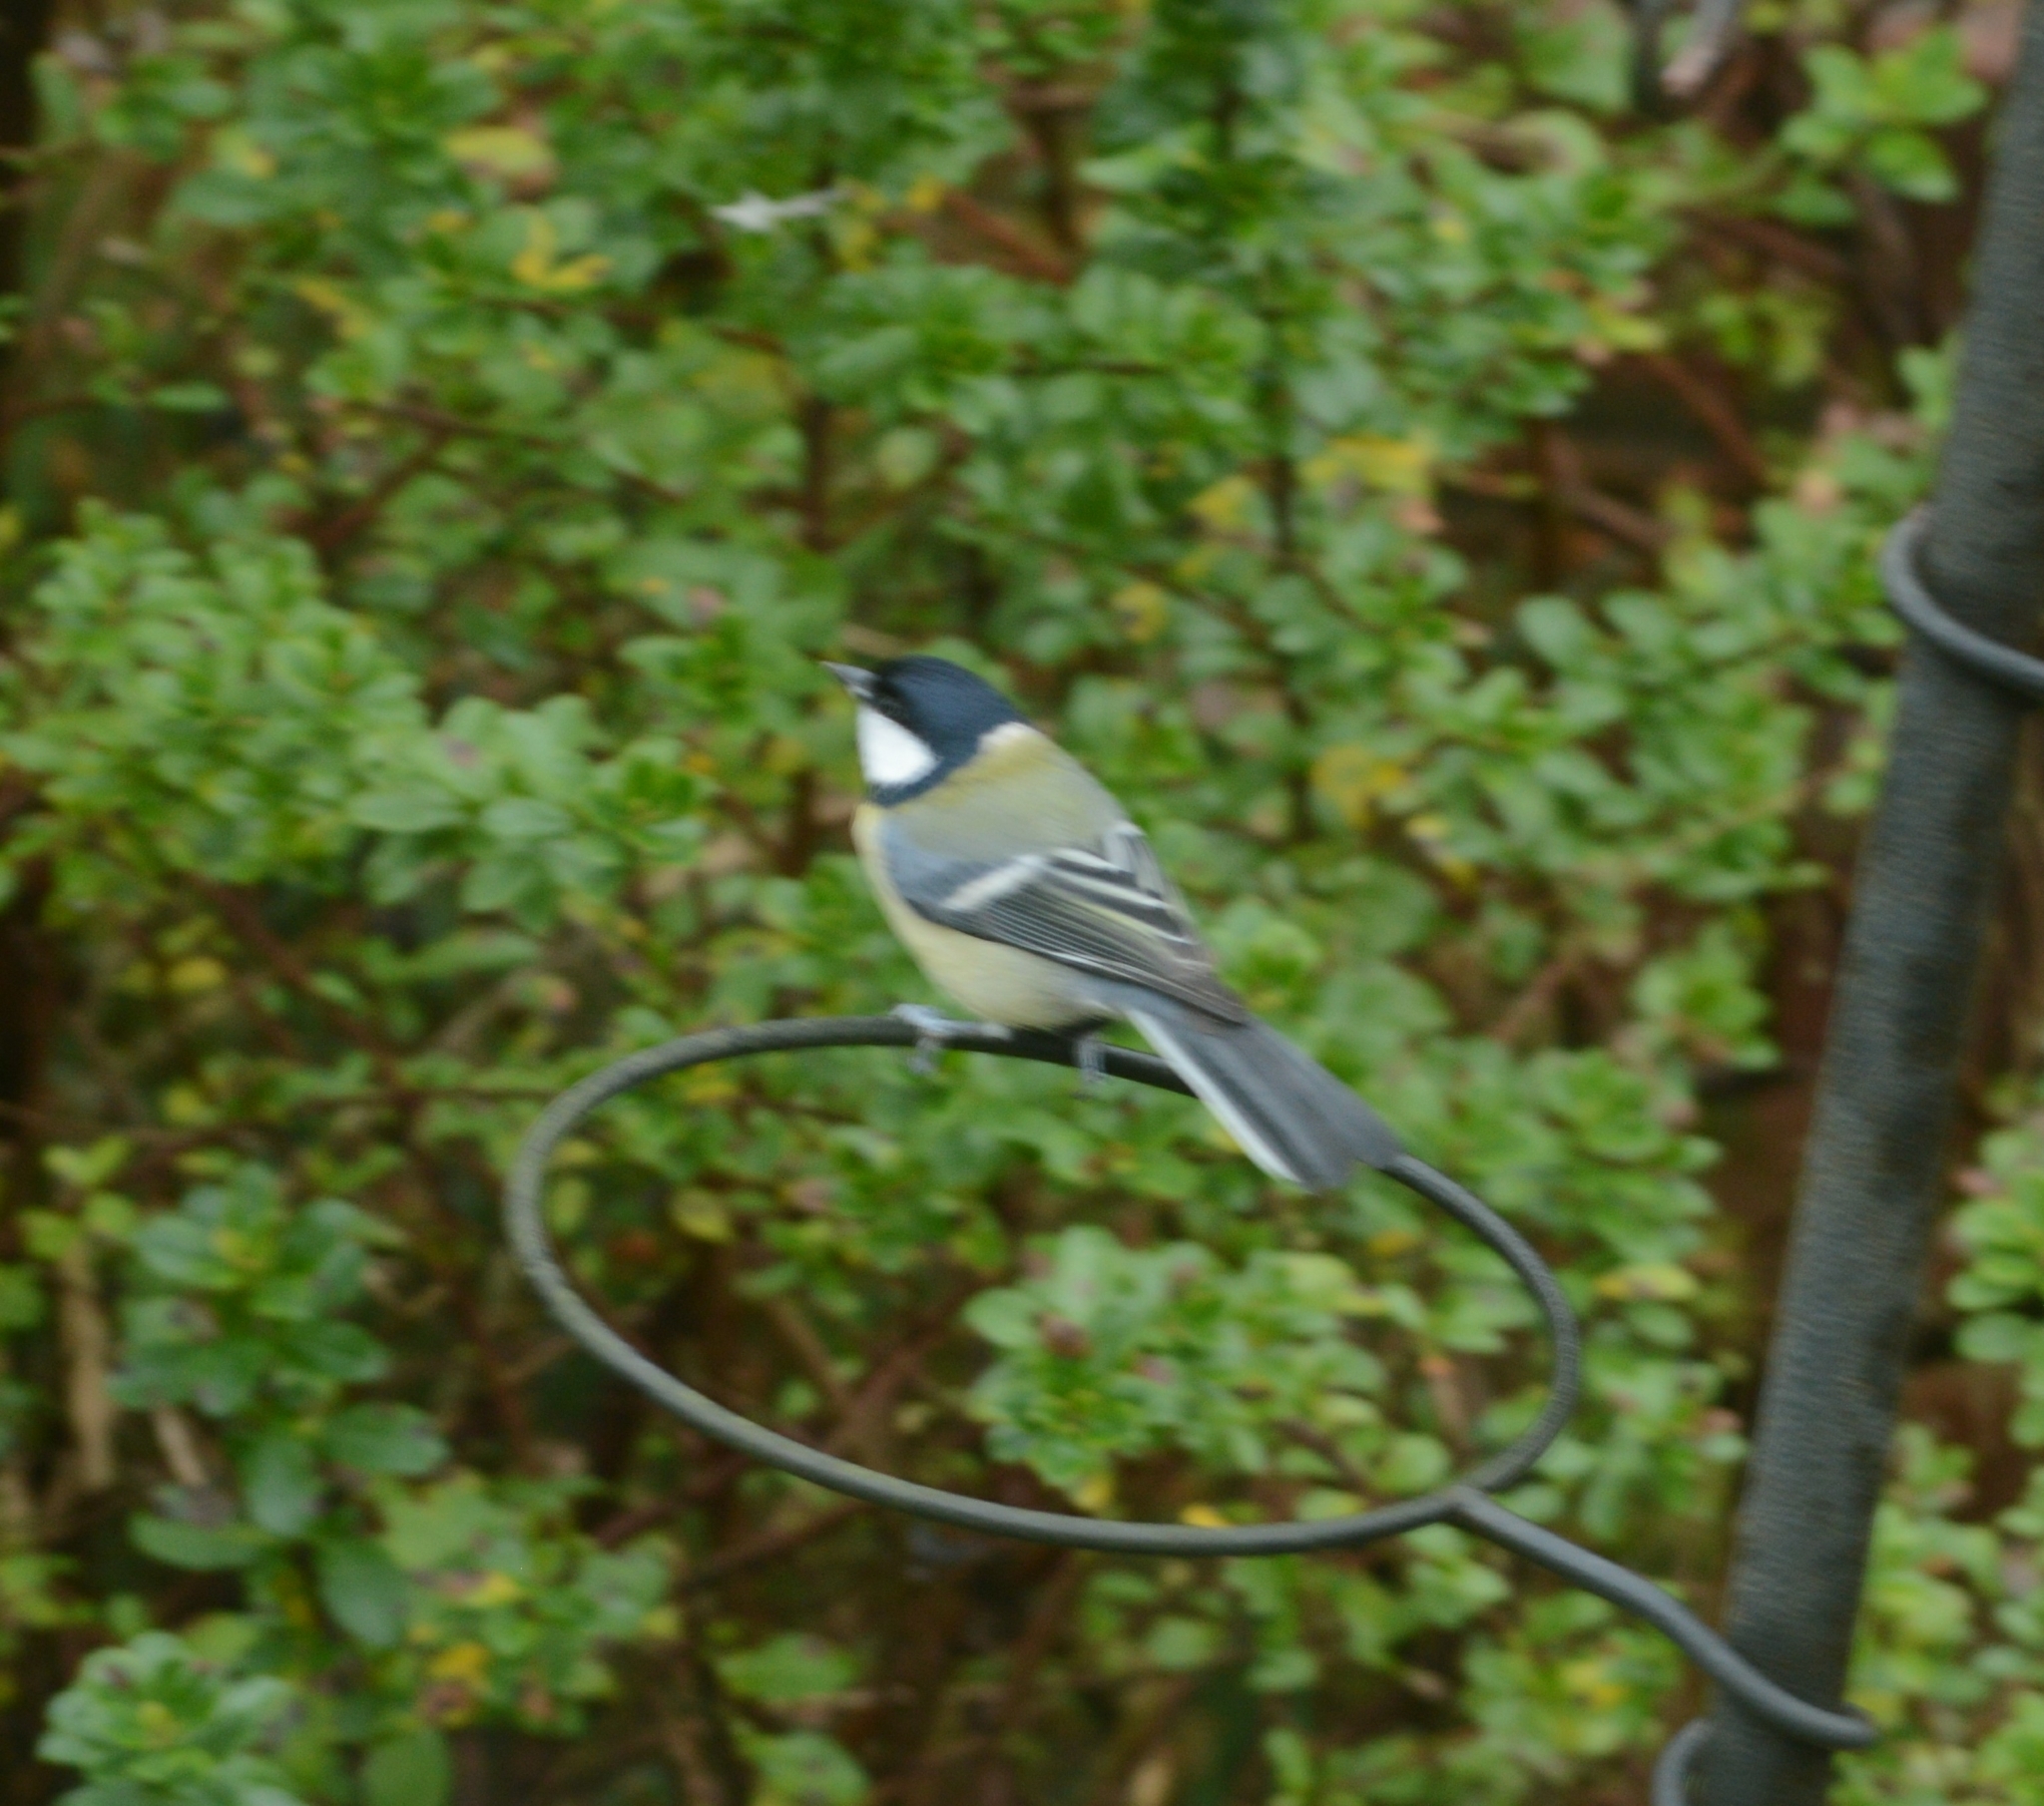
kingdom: Animalia
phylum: Chordata
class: Aves
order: Passeriformes
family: Paridae
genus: Parus
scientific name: Parus major
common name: Great tit
